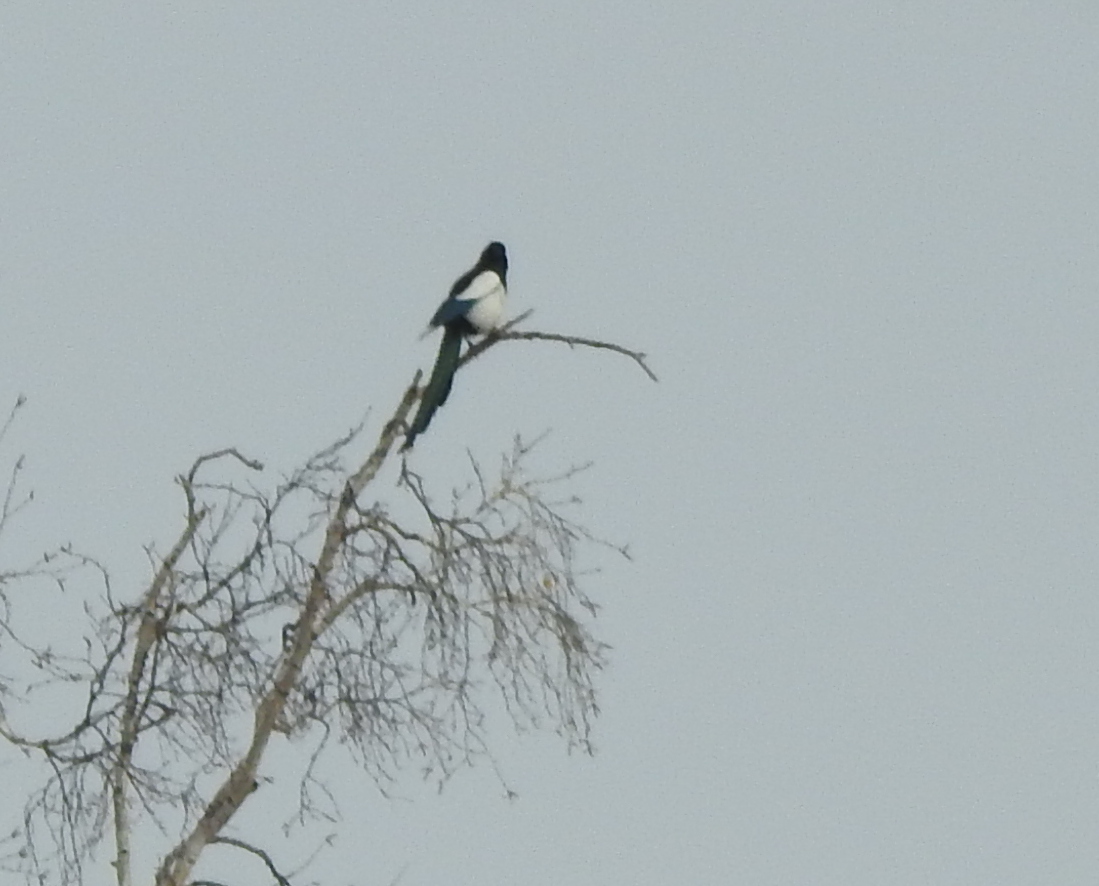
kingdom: Animalia
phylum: Chordata
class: Aves
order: Passeriformes
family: Corvidae
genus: Pica
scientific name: Pica pica
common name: Eurasian magpie
